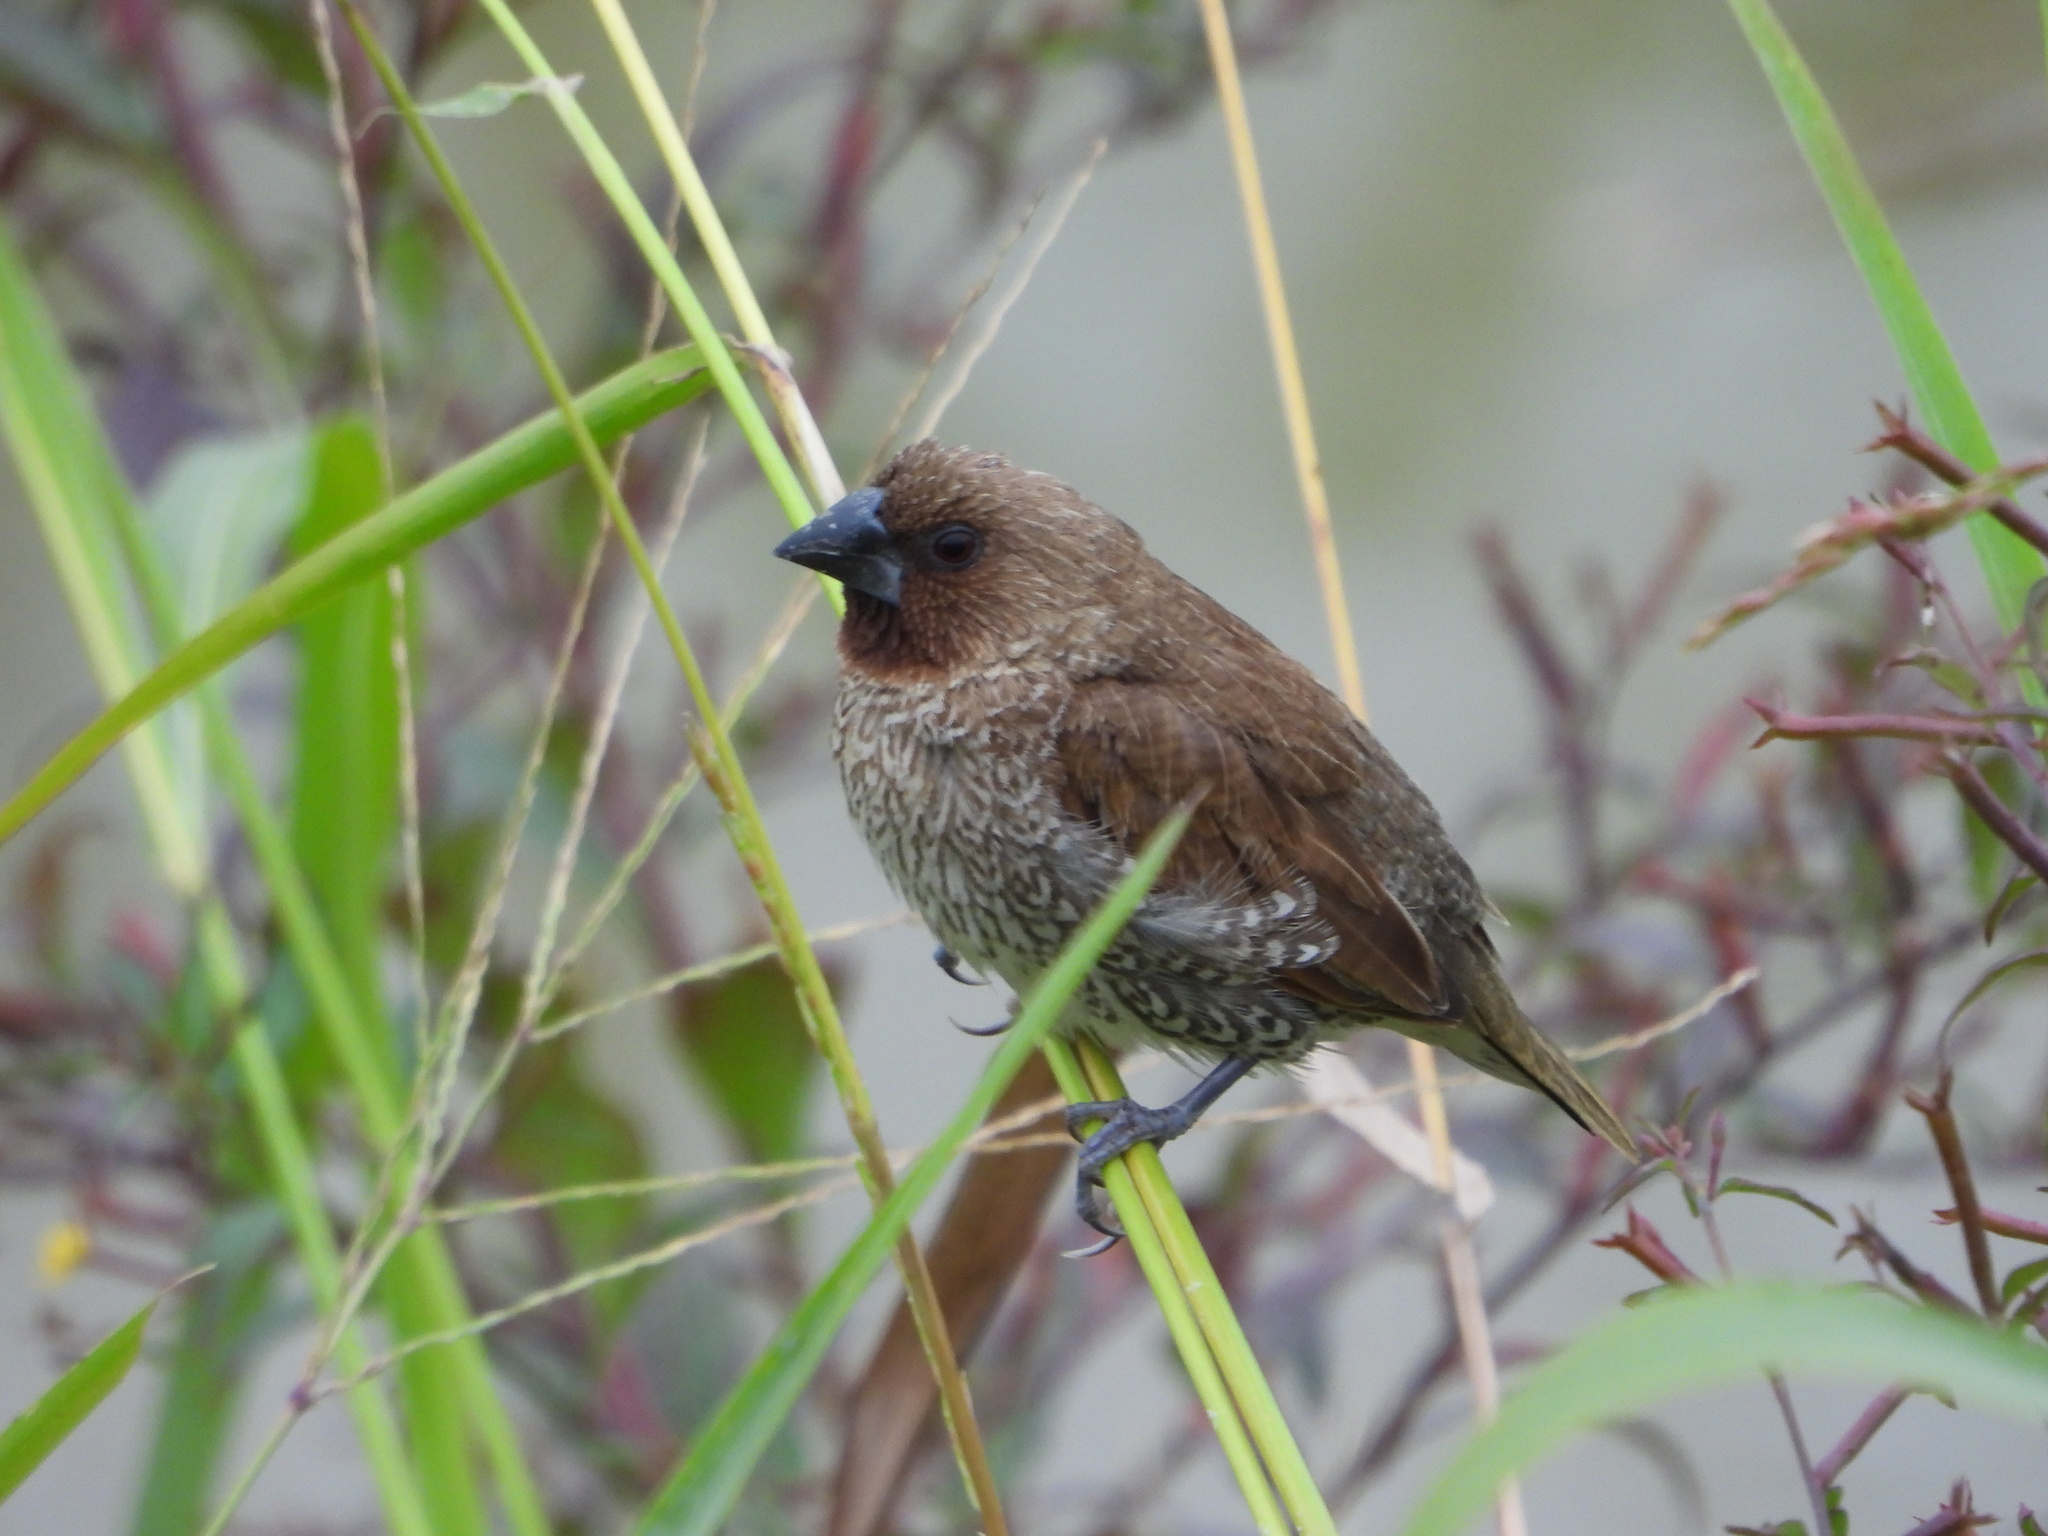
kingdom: Animalia
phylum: Chordata
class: Aves
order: Passeriformes
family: Estrildidae
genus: Lonchura
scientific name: Lonchura punctulata
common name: Scaly-breasted munia
